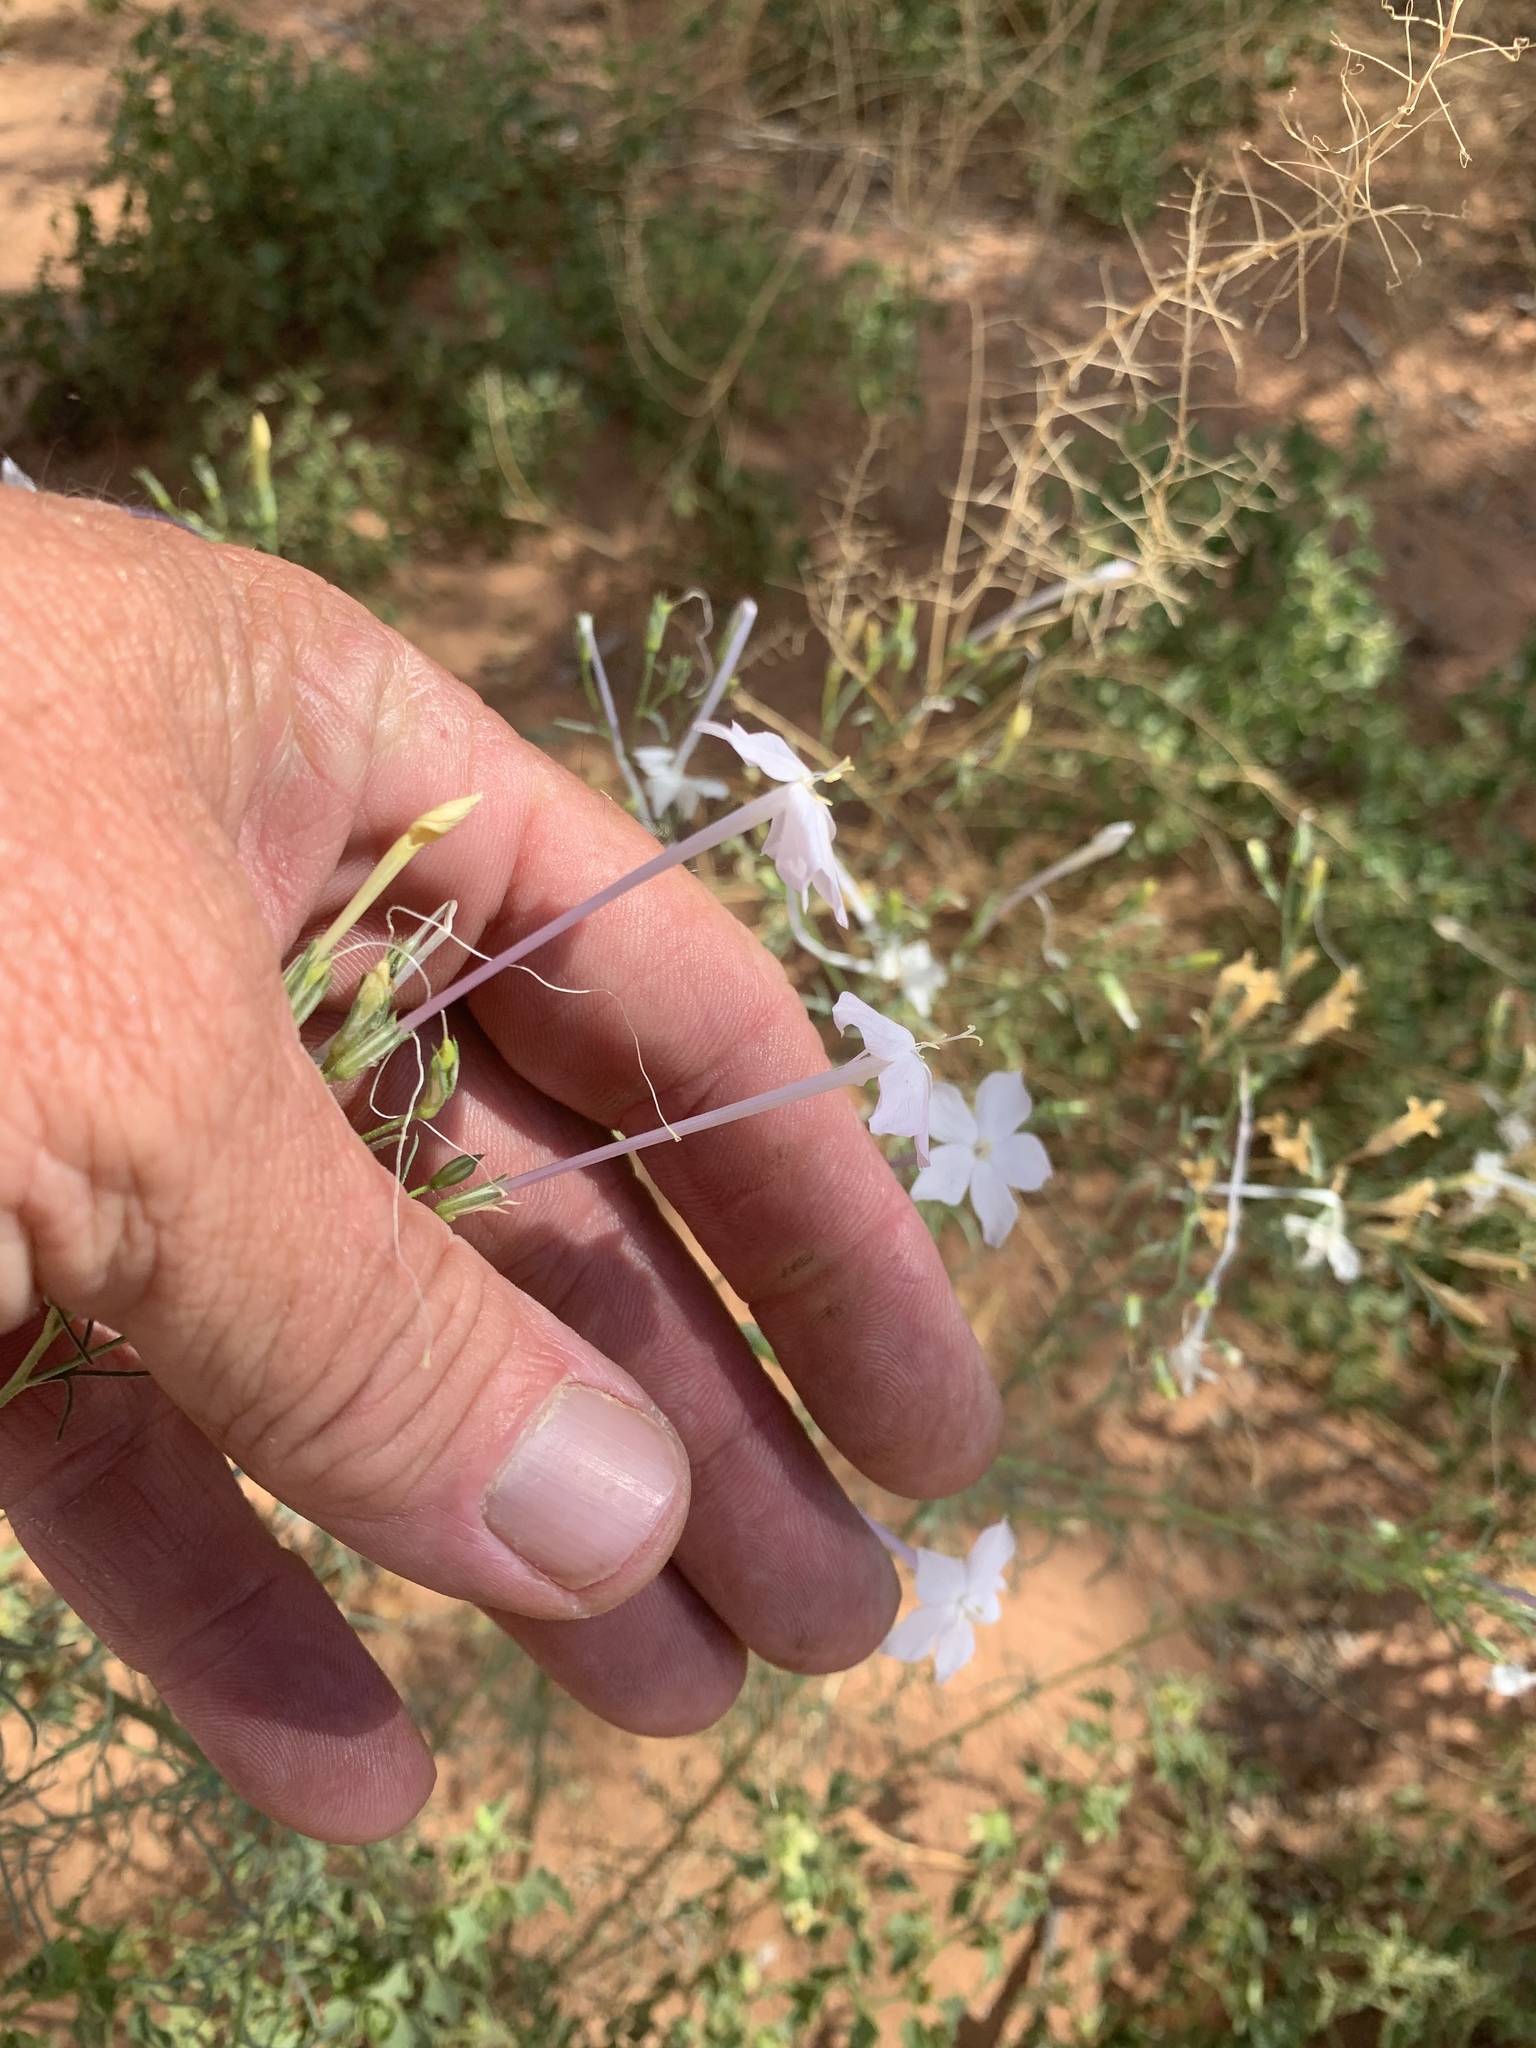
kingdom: Plantae
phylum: Tracheophyta
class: Magnoliopsida
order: Ericales
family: Polemoniaceae
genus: Ipomopsis
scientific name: Ipomopsis longiflora
